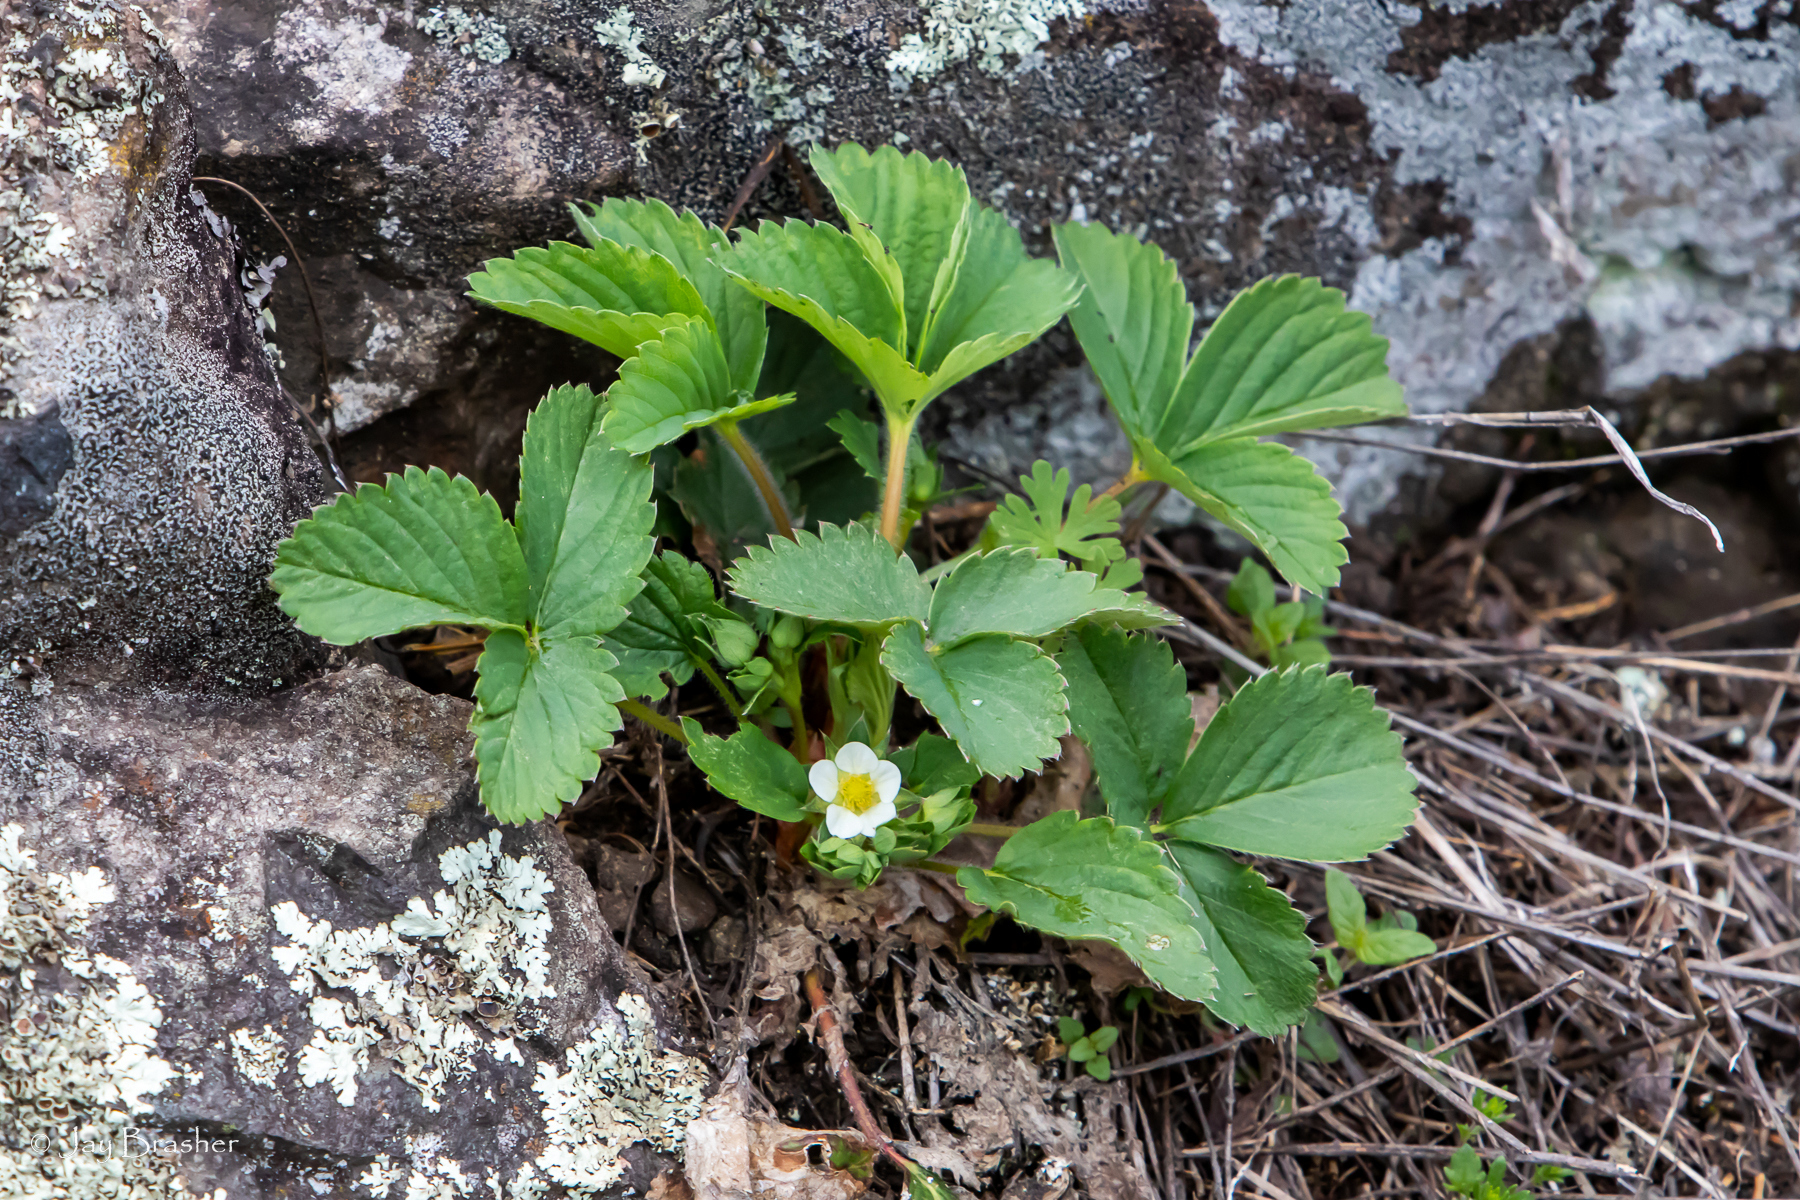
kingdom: Plantae
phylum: Tracheophyta
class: Magnoliopsida
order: Rosales
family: Rosaceae
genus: Fragaria
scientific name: Fragaria virginiana
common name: Thickleaved wild strawberry
